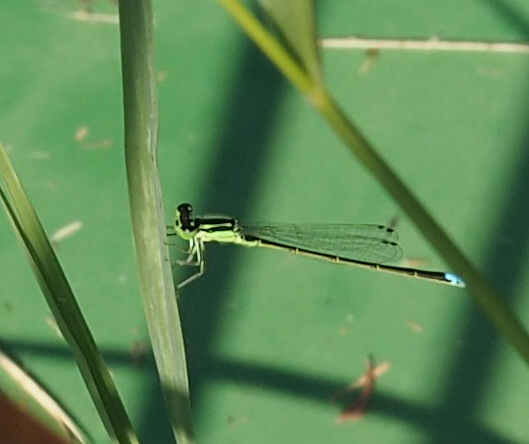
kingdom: Animalia
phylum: Arthropoda
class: Insecta
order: Odonata
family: Coenagrionidae
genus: Ischnura
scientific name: Ischnura verticalis
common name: Eastern forktail
